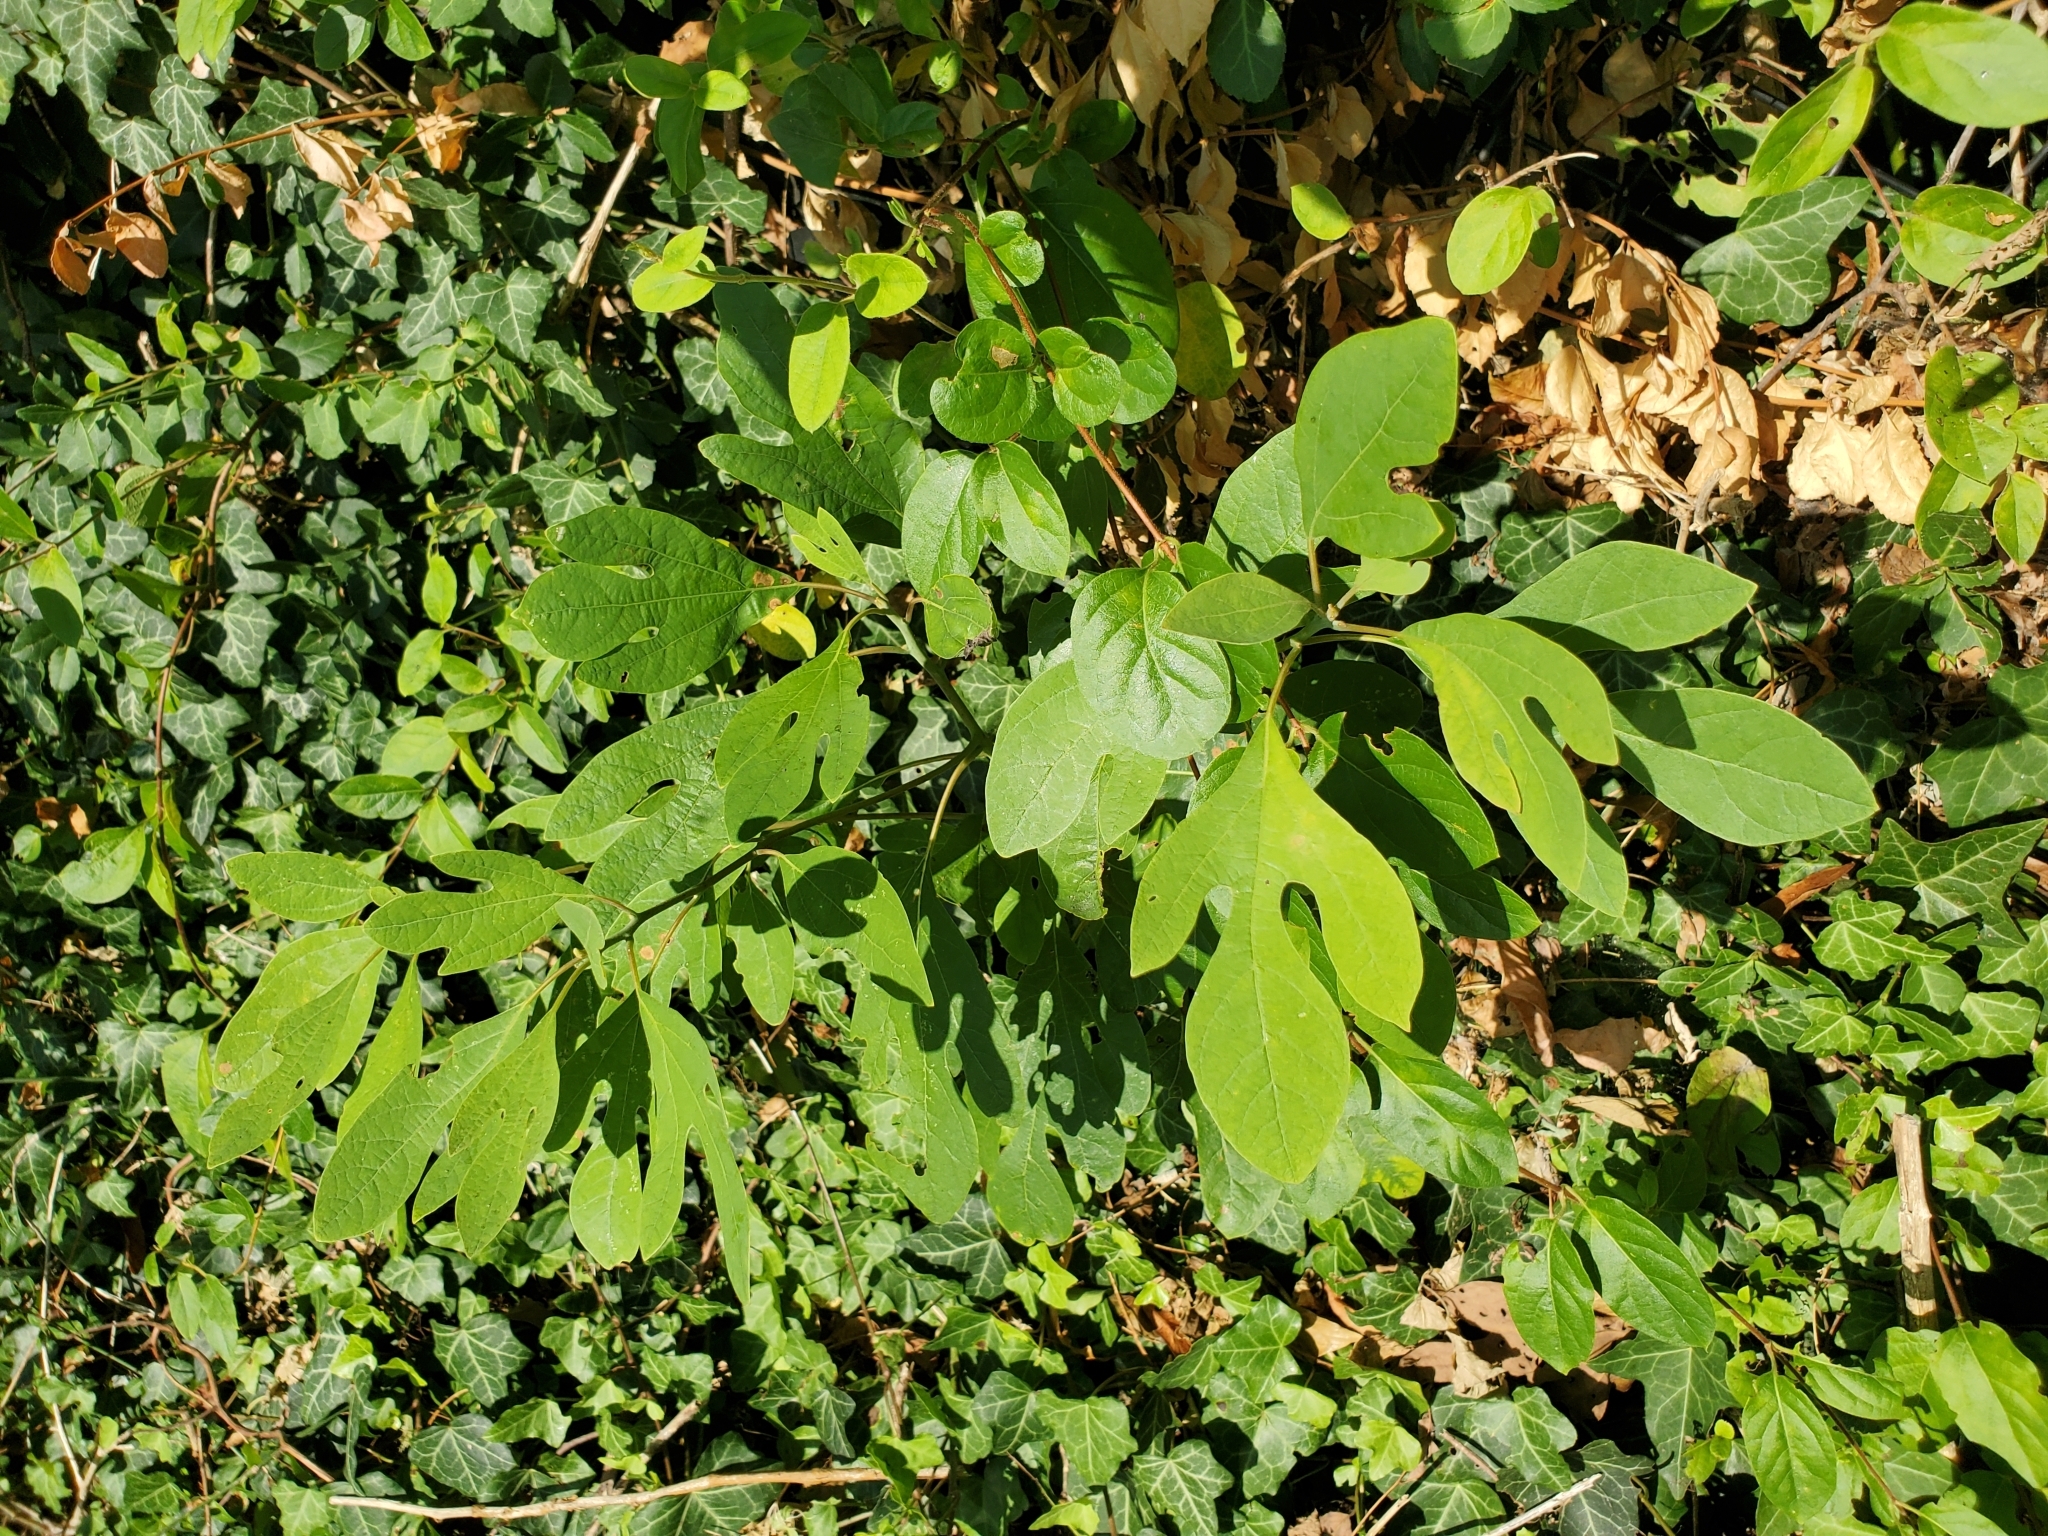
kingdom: Plantae
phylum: Tracheophyta
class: Magnoliopsida
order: Laurales
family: Lauraceae
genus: Sassafras
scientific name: Sassafras albidum
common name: Sassafras
